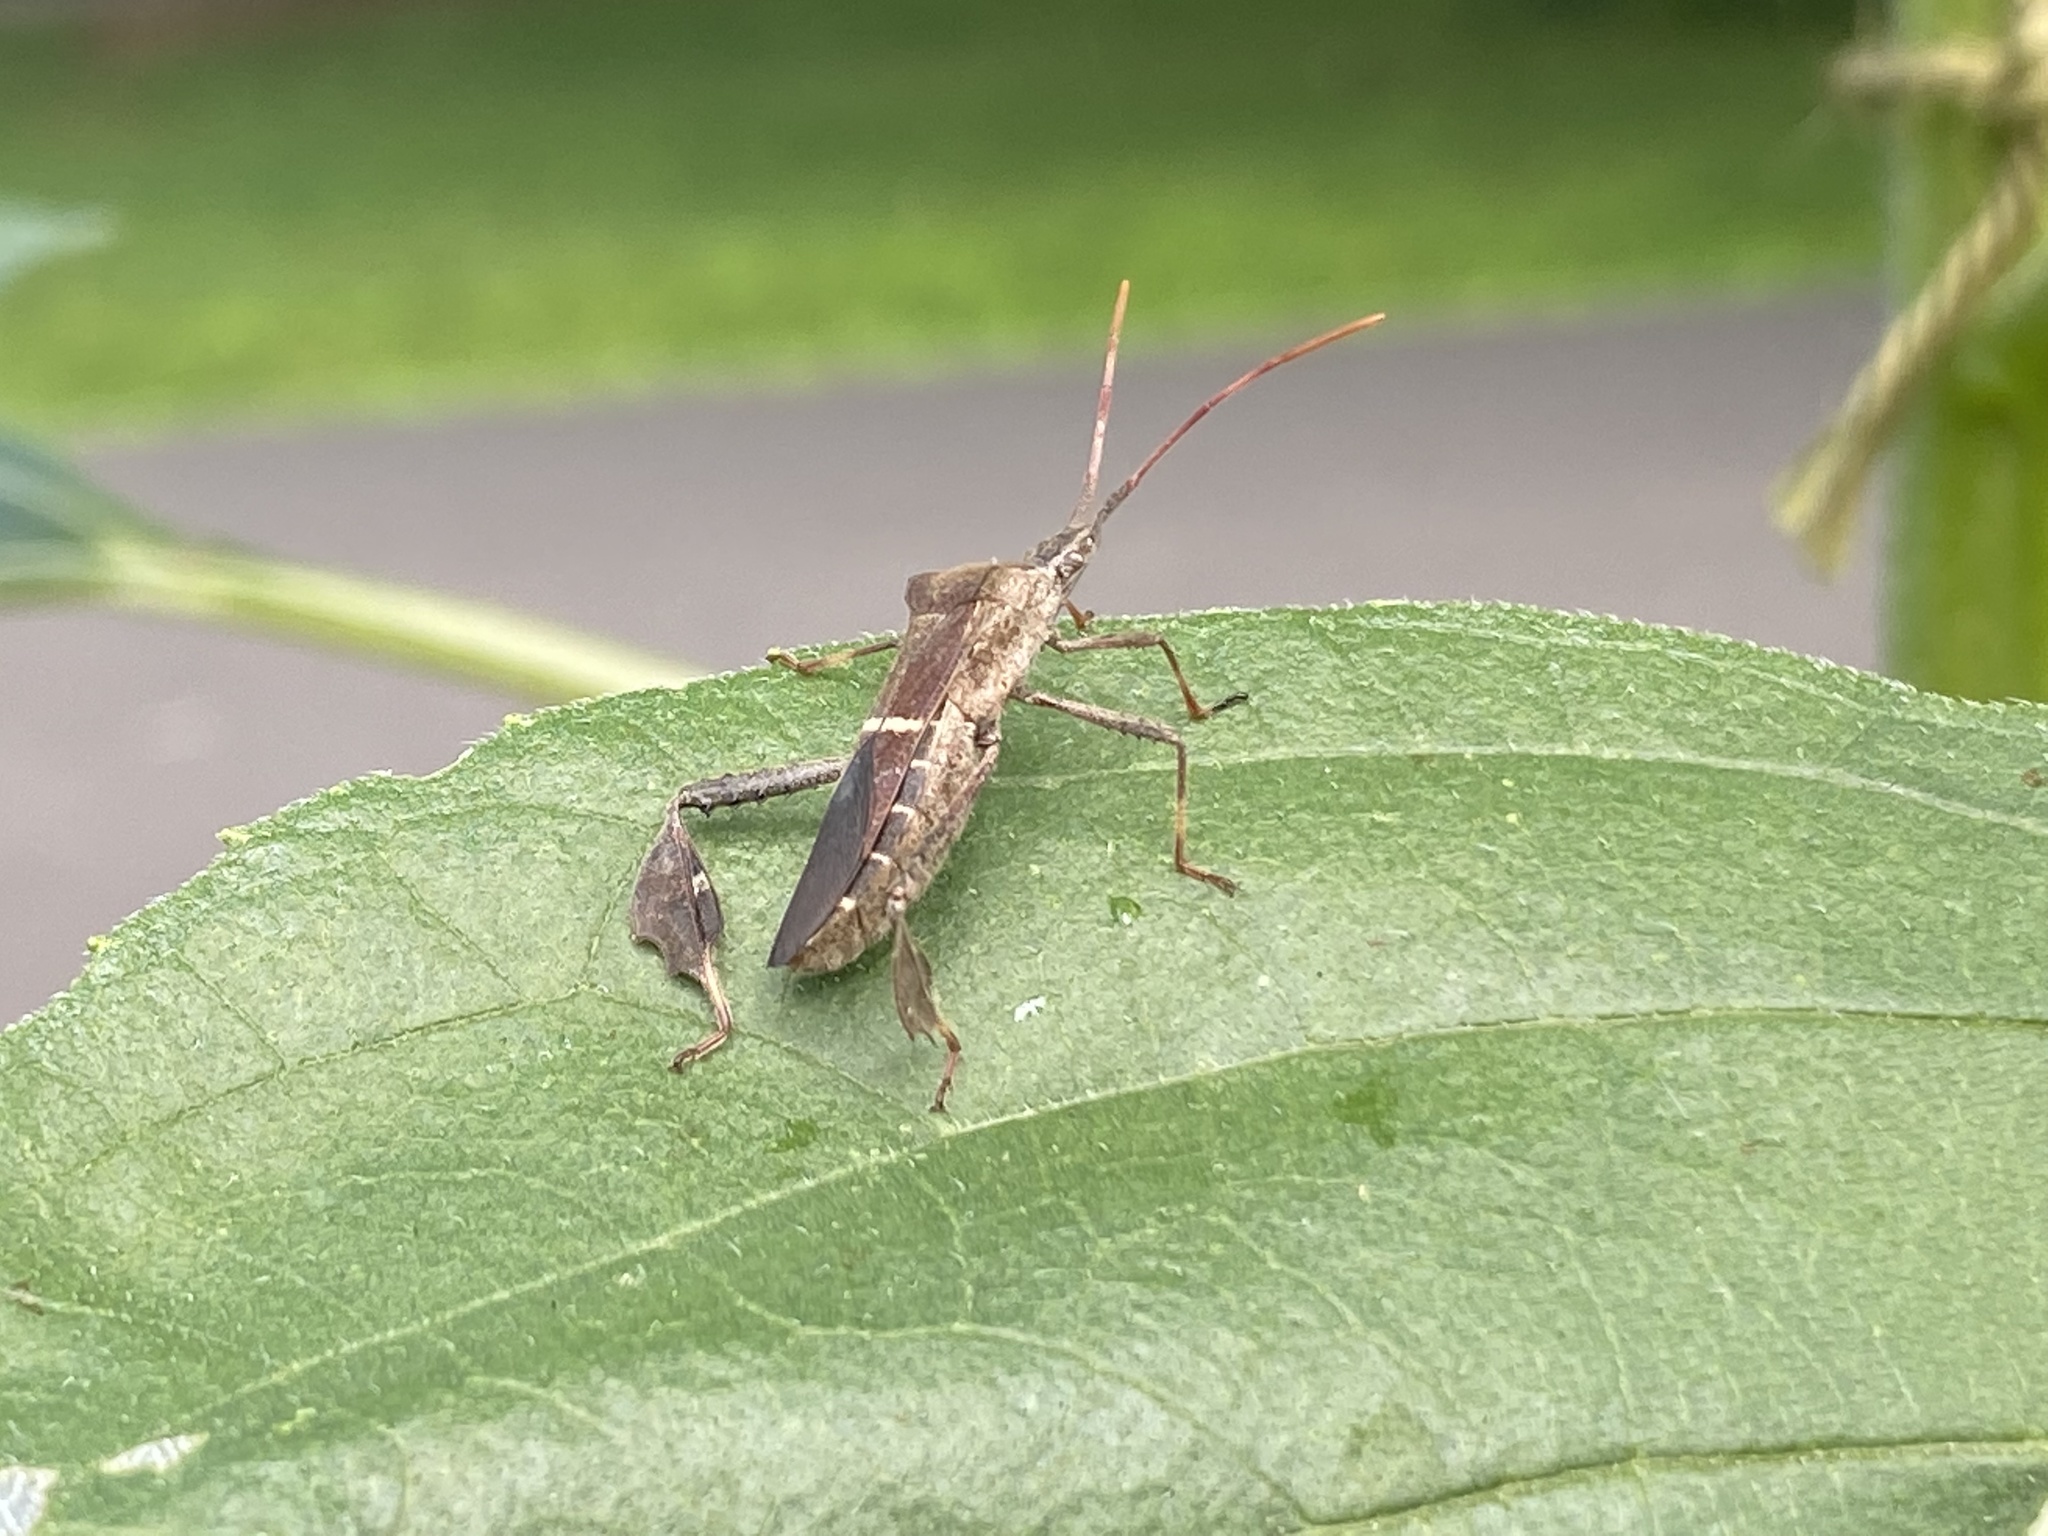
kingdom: Animalia
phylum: Arthropoda
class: Insecta
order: Hemiptera
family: Coreidae
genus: Leptoglossus
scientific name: Leptoglossus phyllopus
